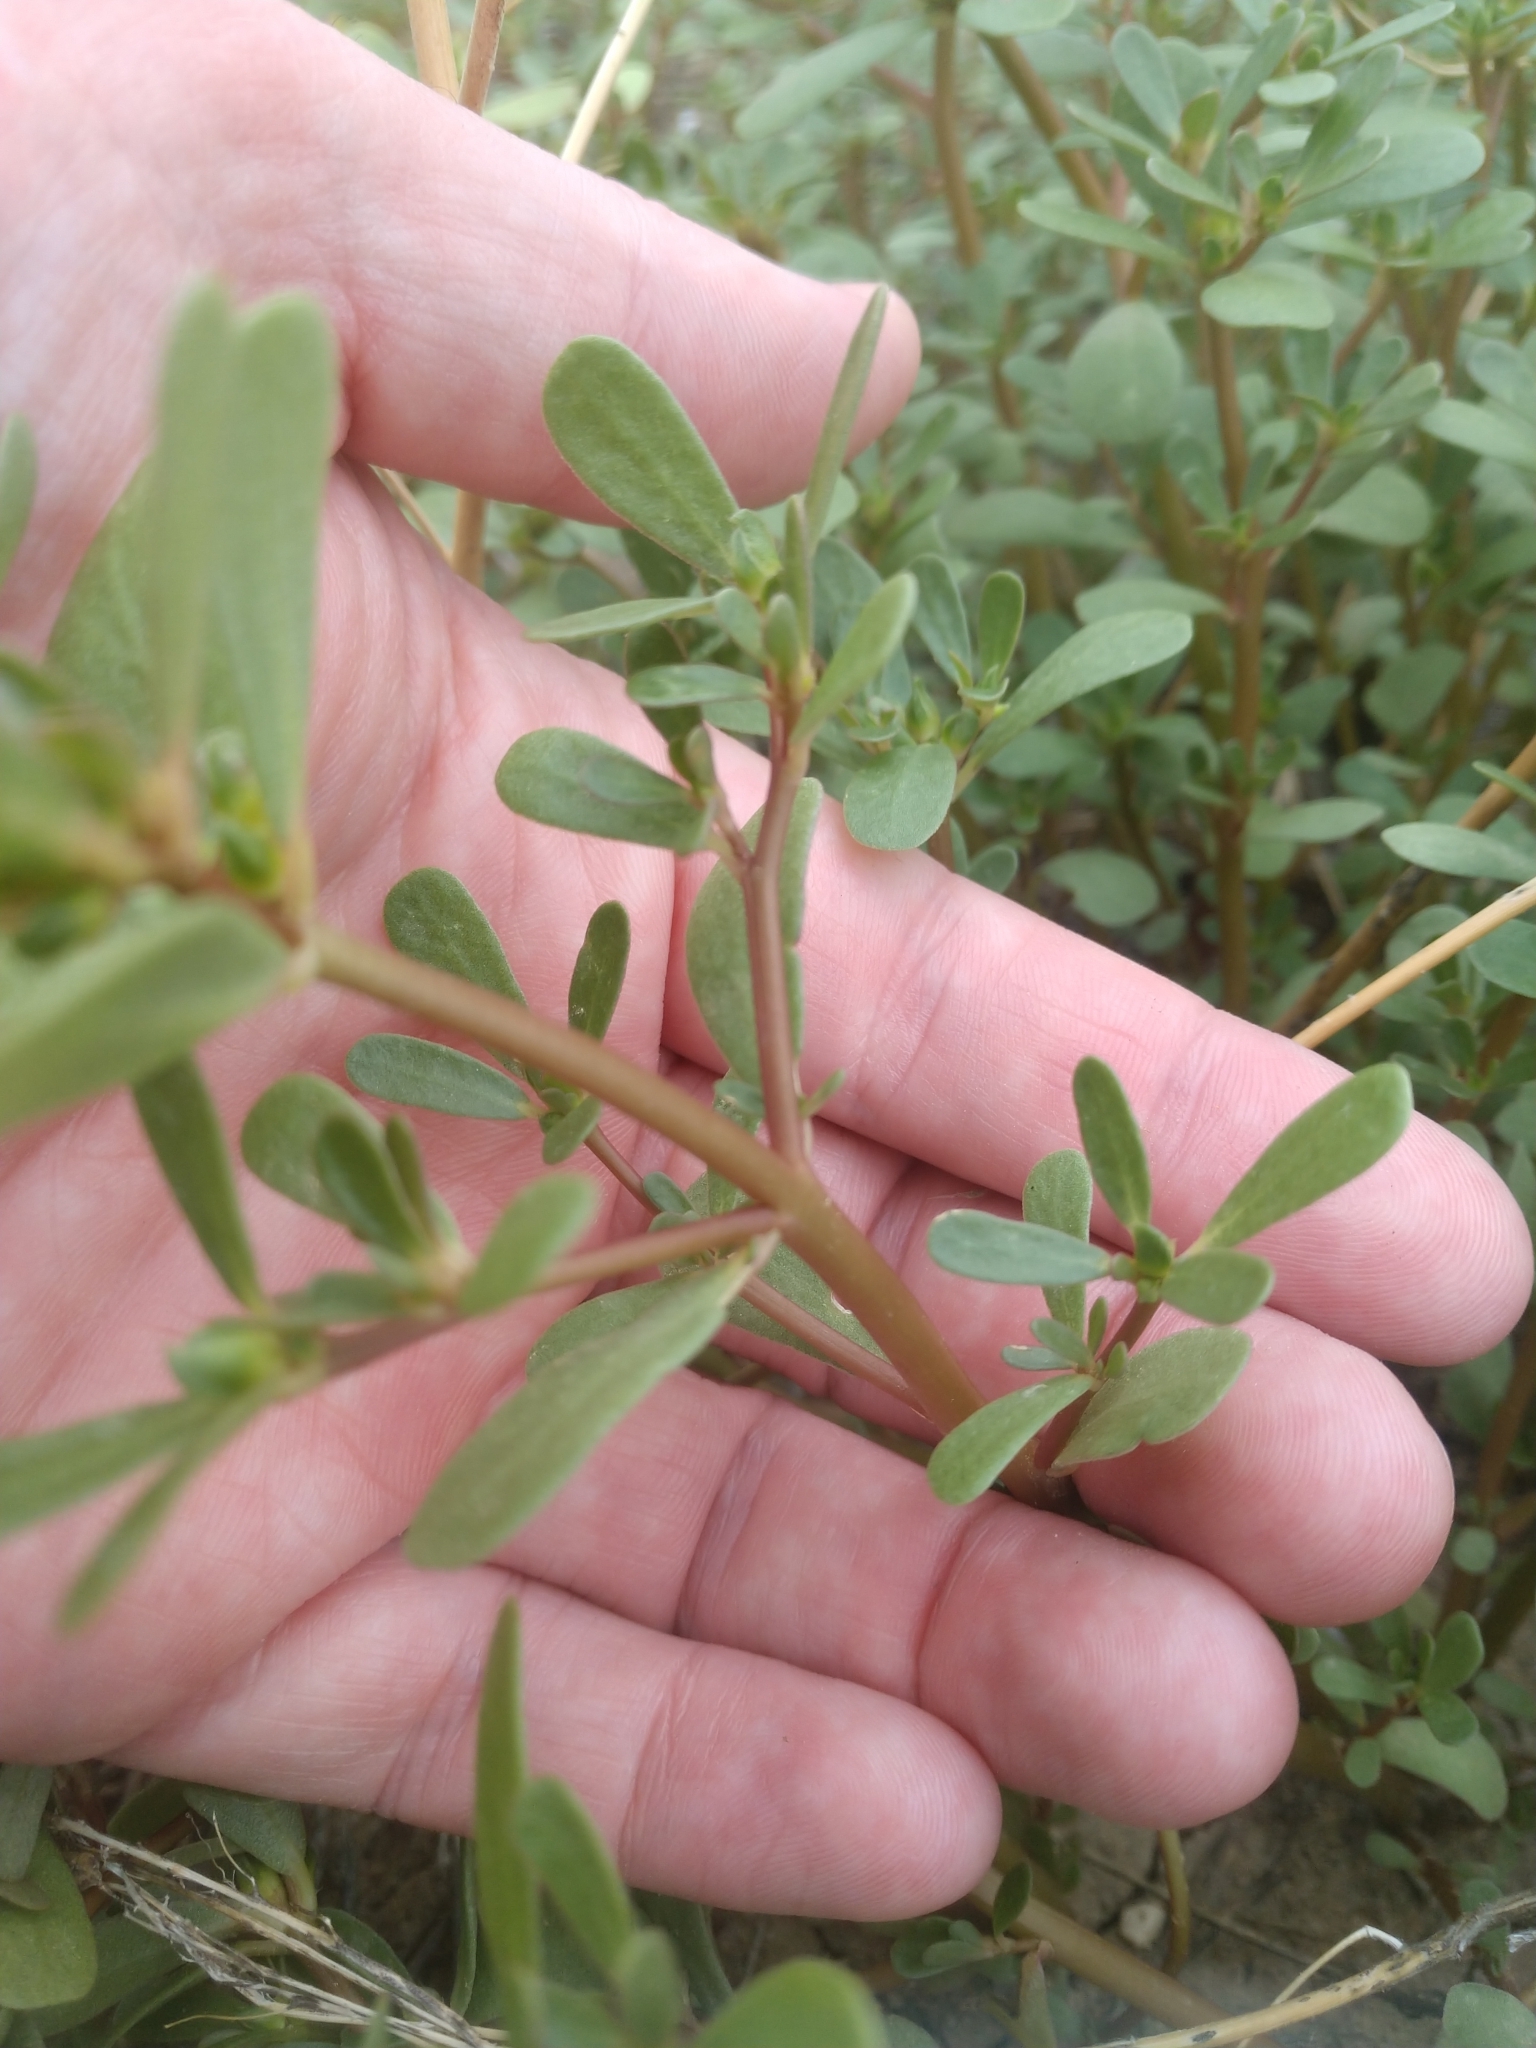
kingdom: Plantae
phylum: Tracheophyta
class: Magnoliopsida
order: Caryophyllales
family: Portulacaceae
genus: Portulaca
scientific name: Portulaca oleracea
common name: Common purslane
